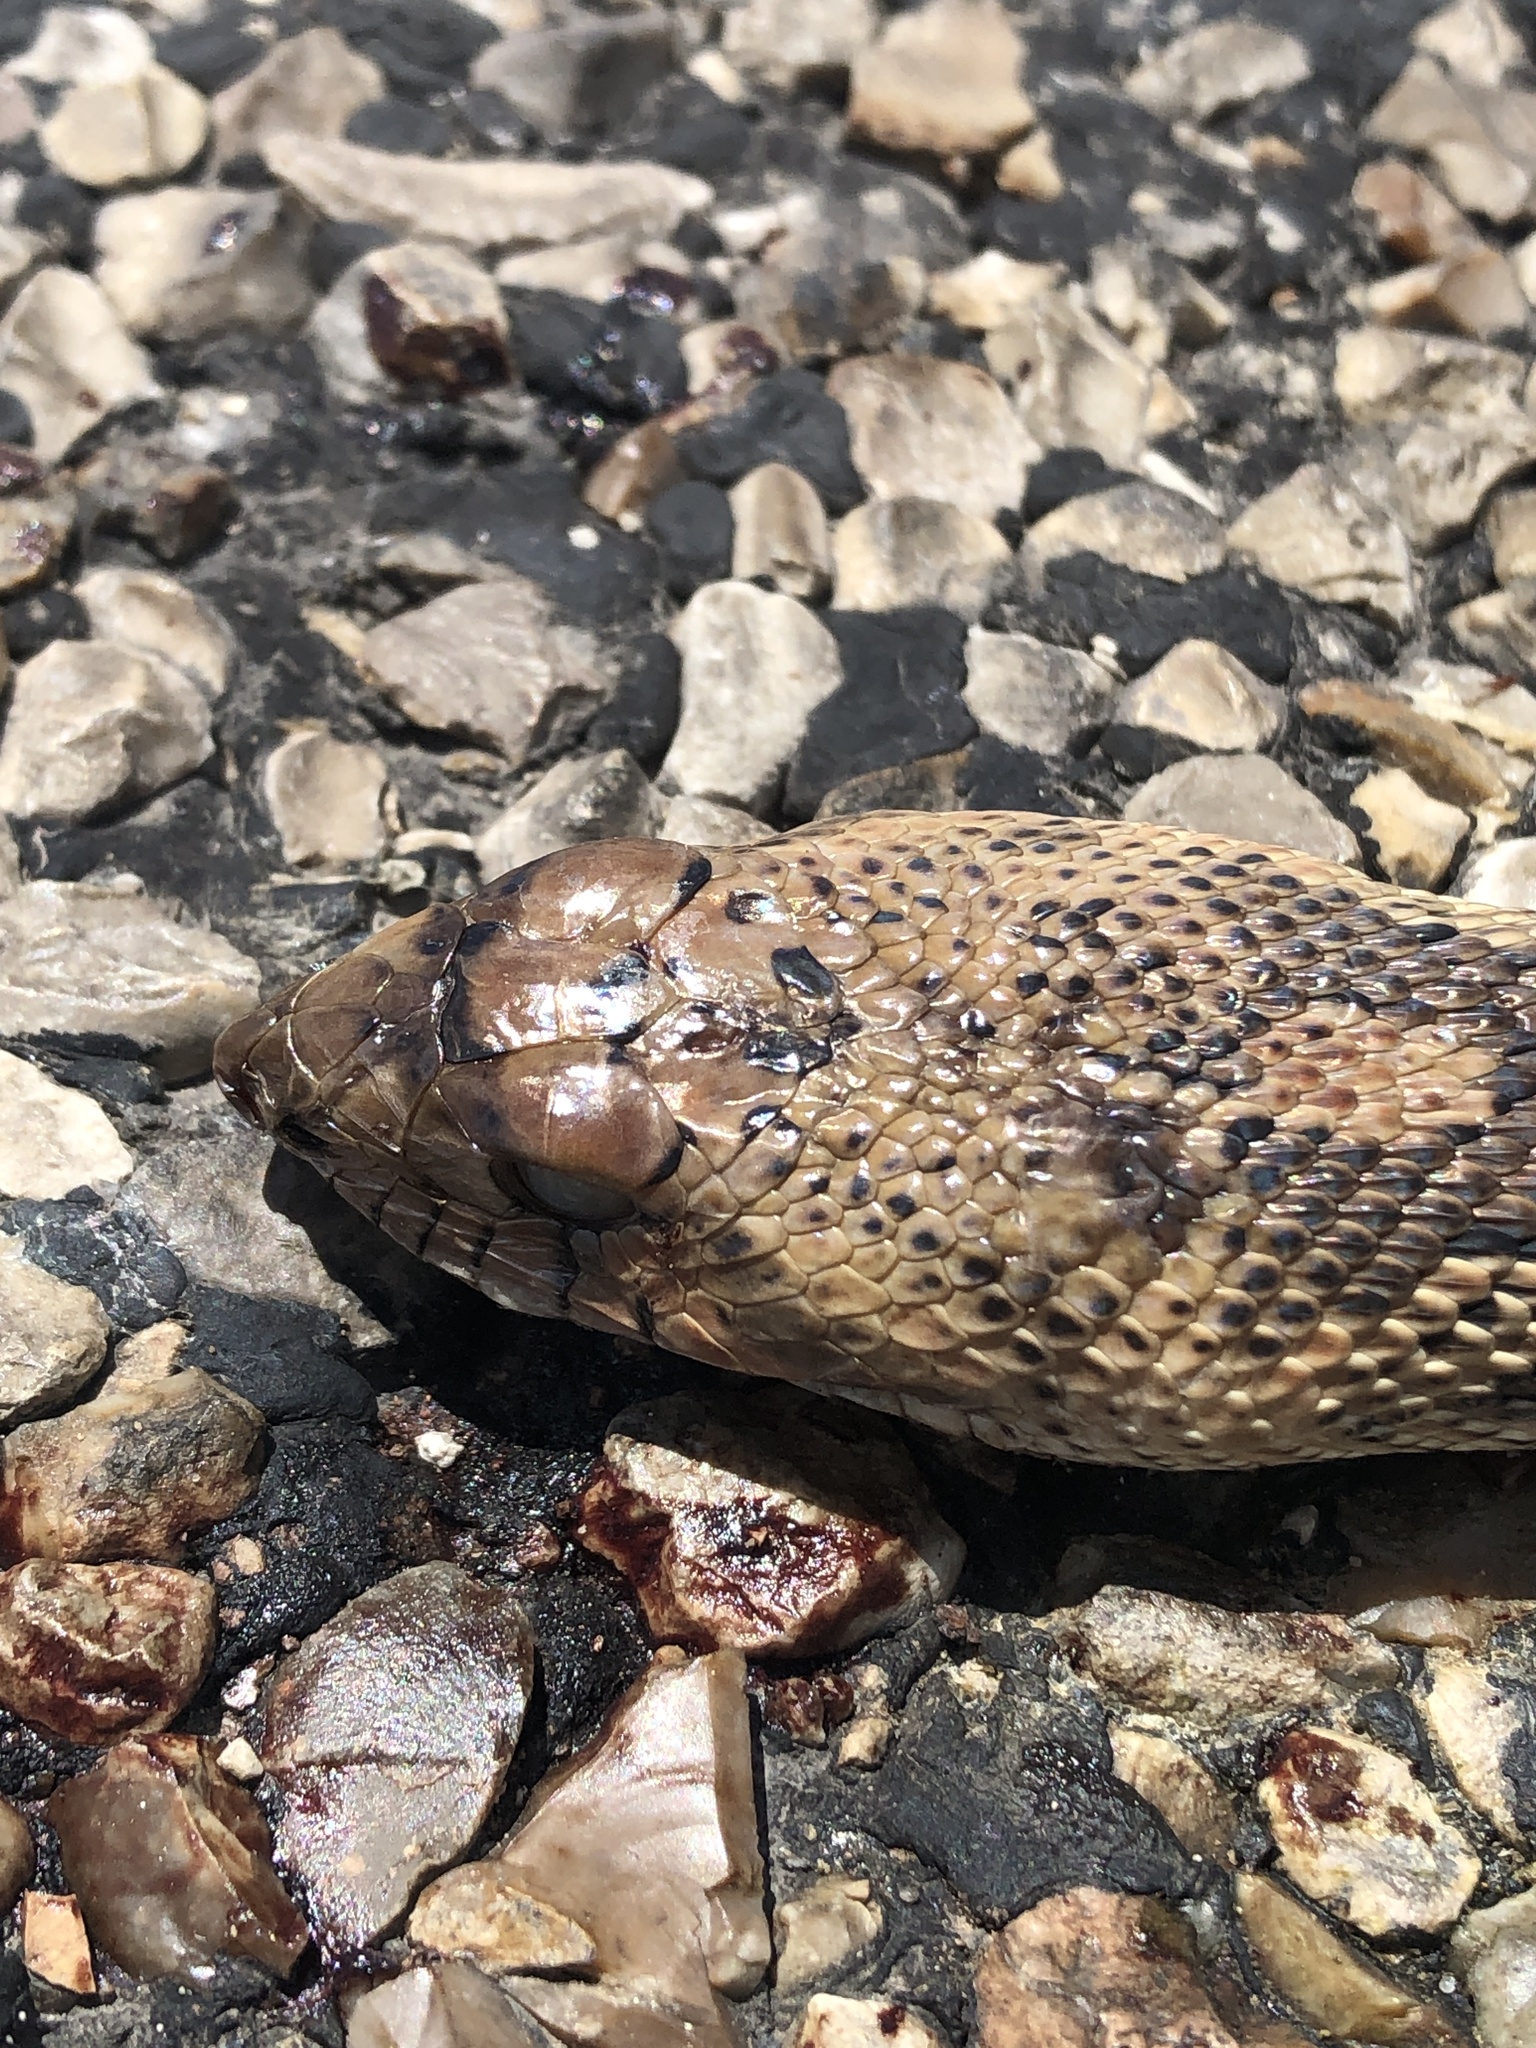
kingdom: Animalia
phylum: Chordata
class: Squamata
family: Colubridae
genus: Pituophis
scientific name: Pituophis catenifer
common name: Gopher snake
